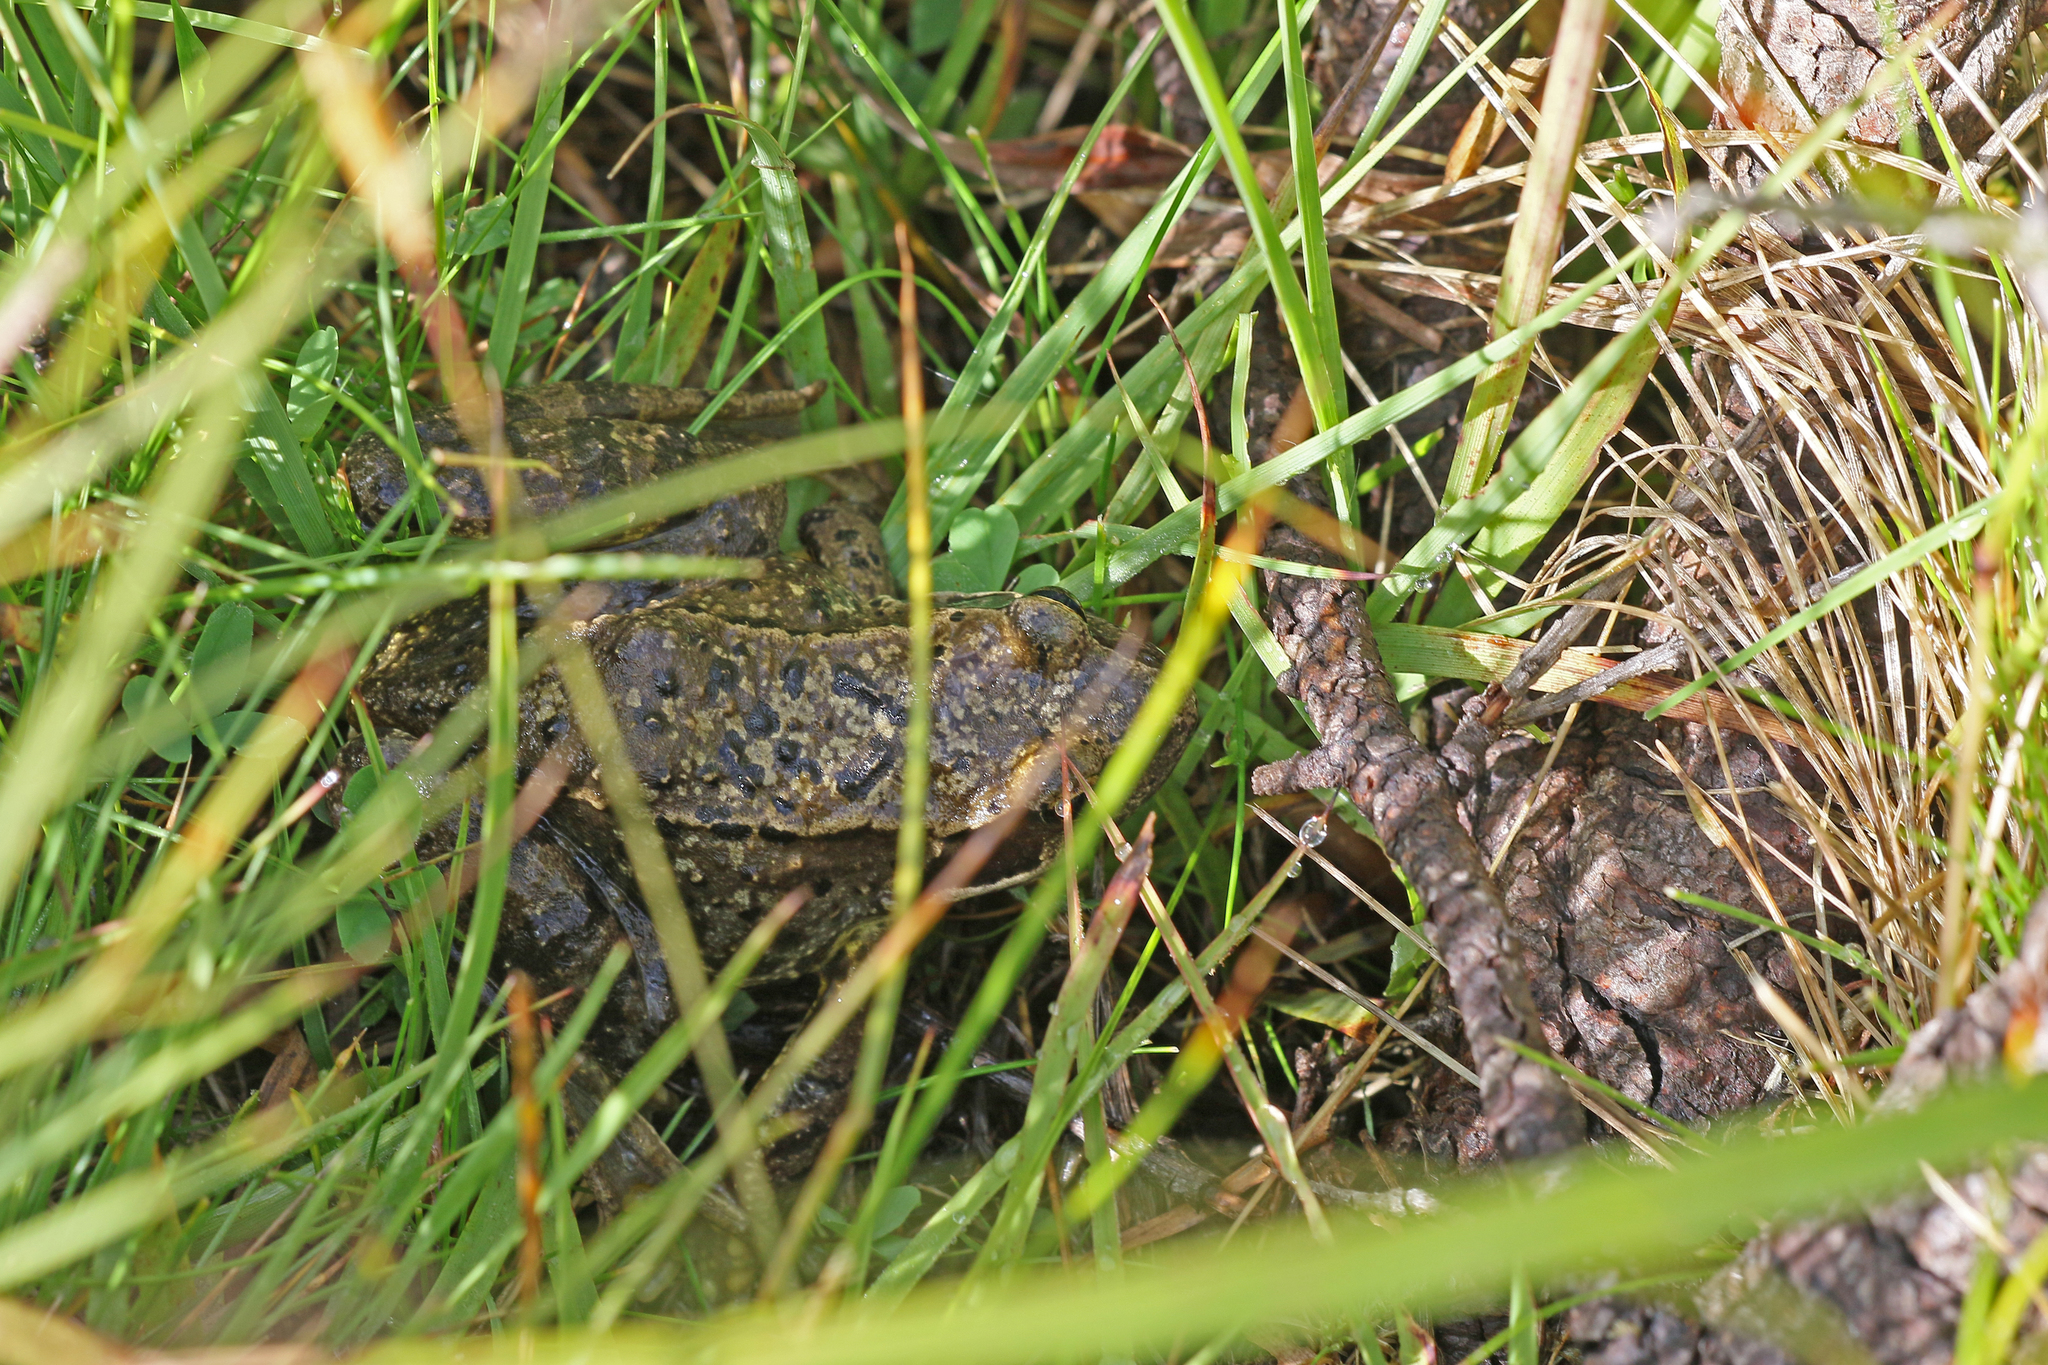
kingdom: Animalia
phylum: Chordata
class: Amphibia
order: Anura
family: Ranidae
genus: Rana
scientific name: Rana temporaria
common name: Common frog
